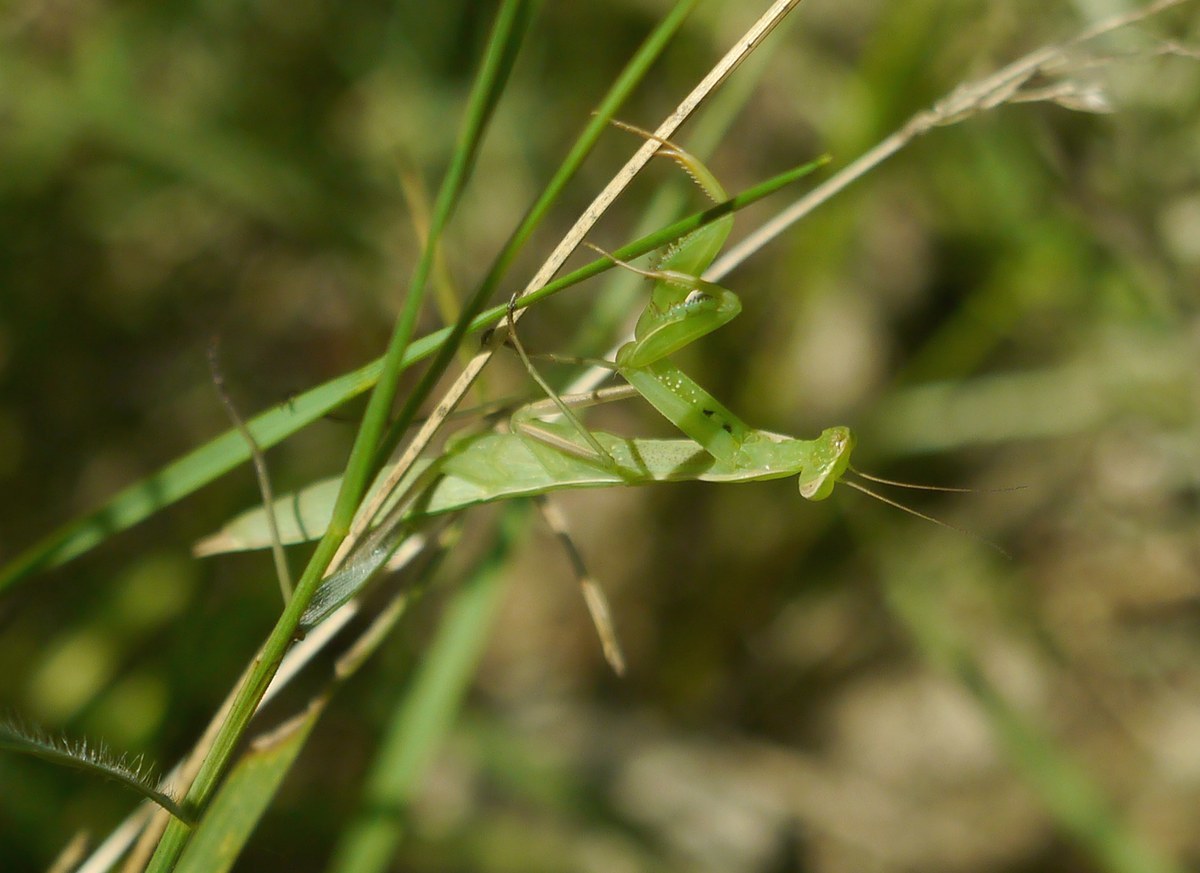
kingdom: Animalia
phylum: Arthropoda
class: Insecta
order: Mantodea
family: Mantidae
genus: Mantis
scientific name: Mantis religiosa
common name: Praying mantis
